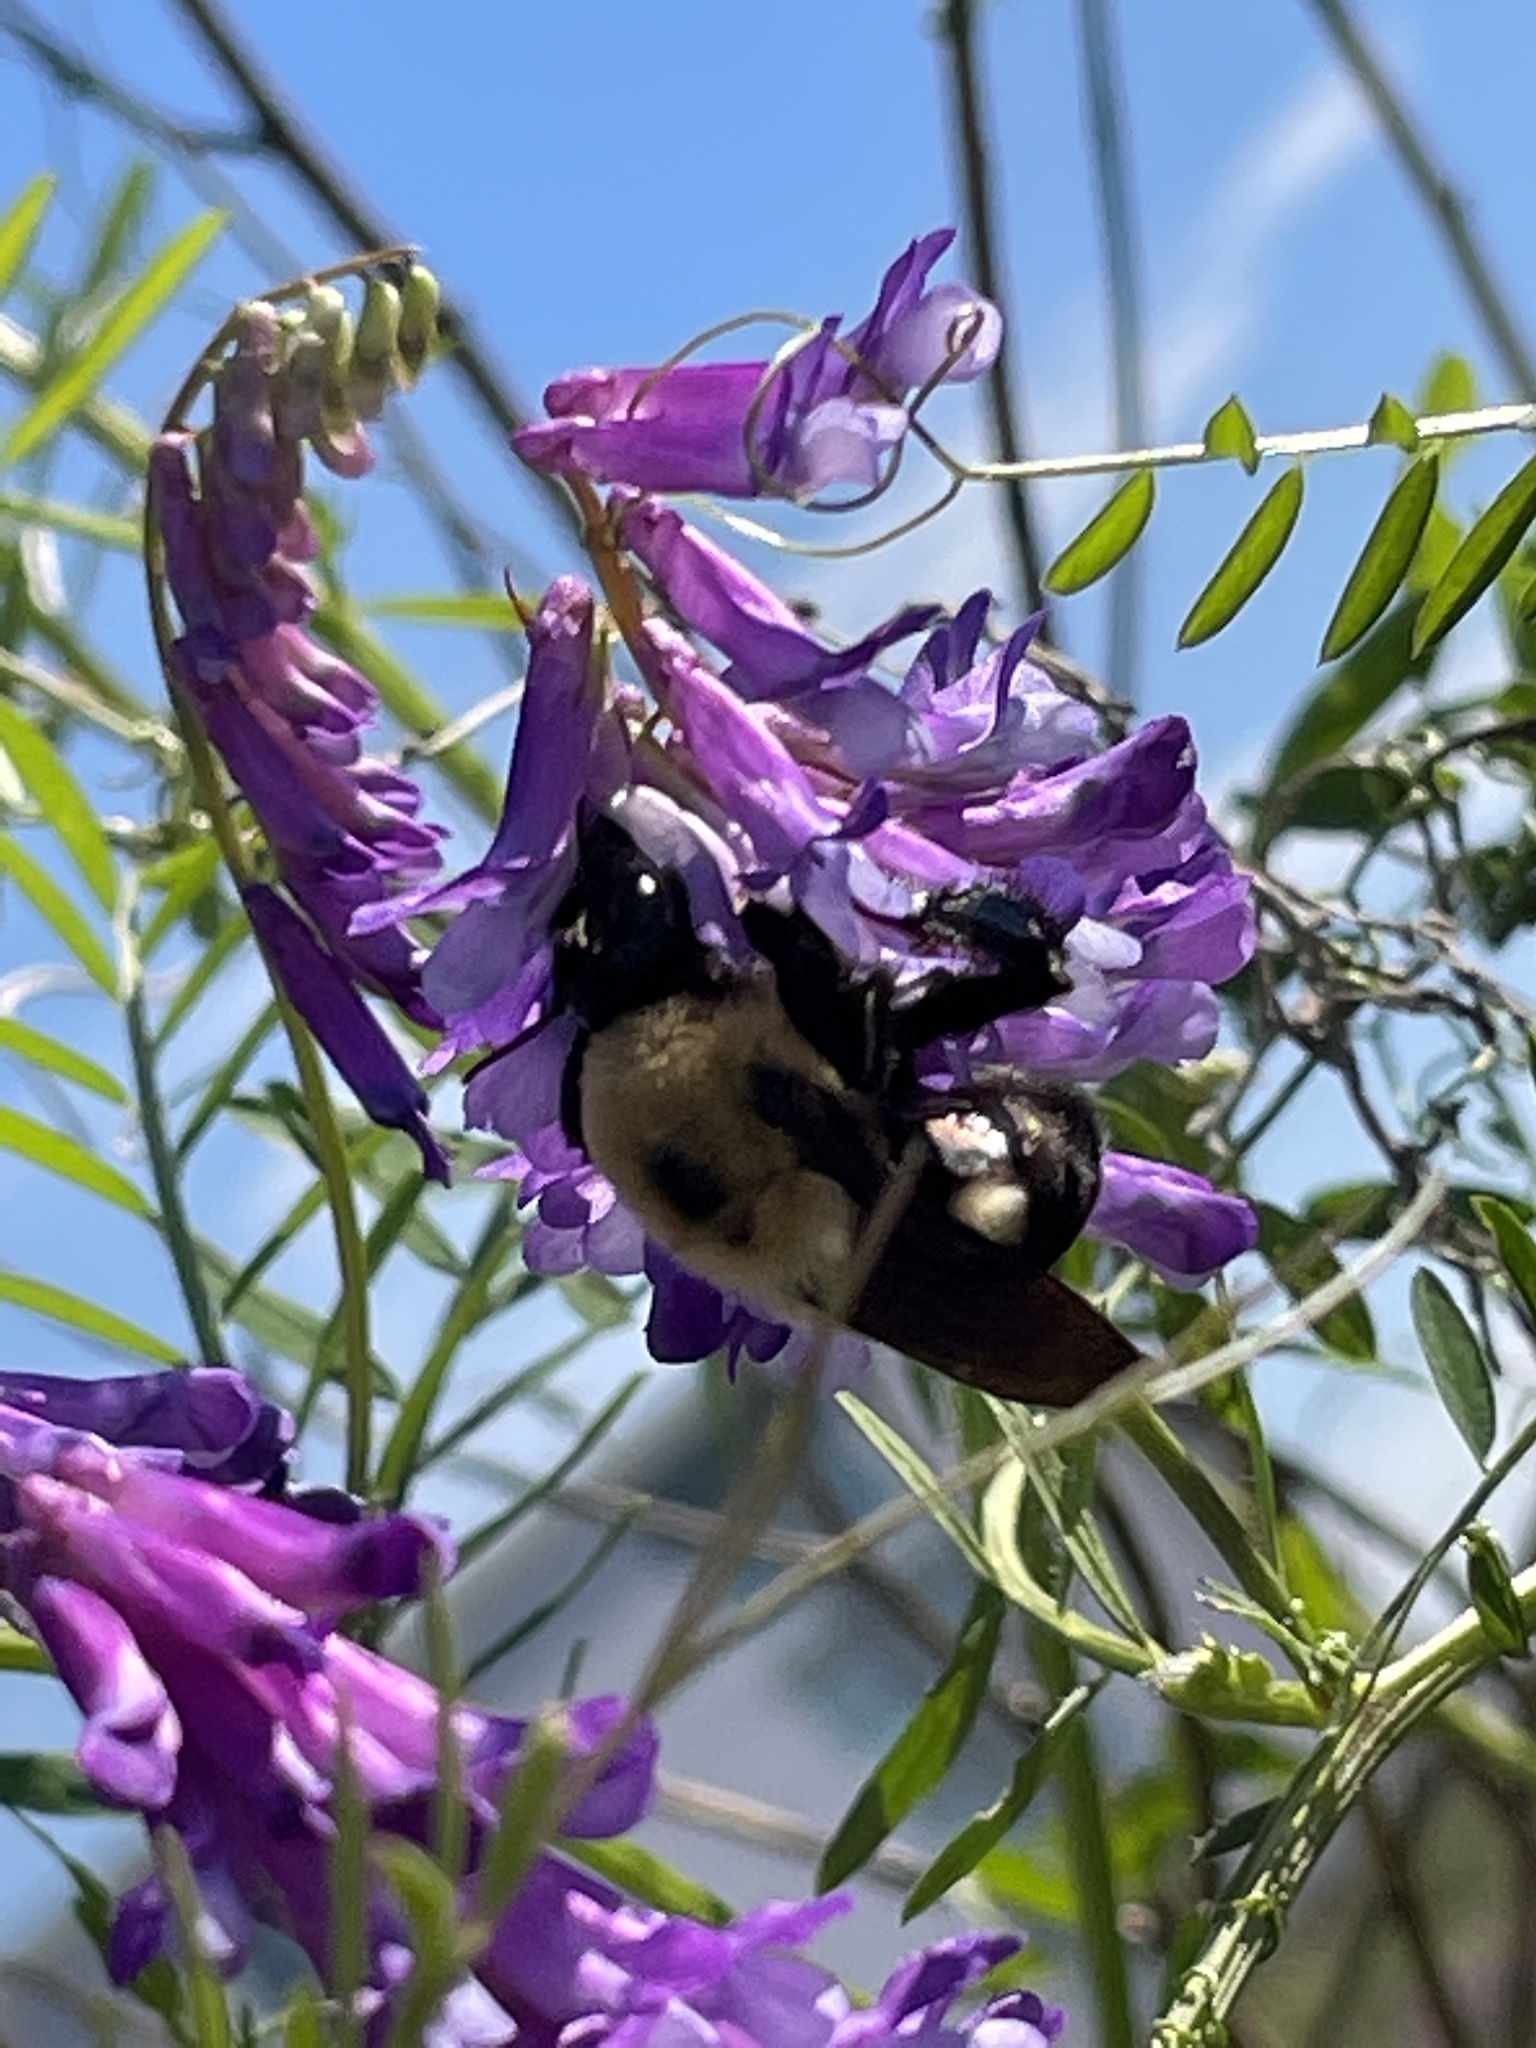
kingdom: Animalia
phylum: Arthropoda
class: Insecta
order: Hymenoptera
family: Apidae
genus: Bombus
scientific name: Bombus griseocollis
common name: Brown-belted bumble bee
